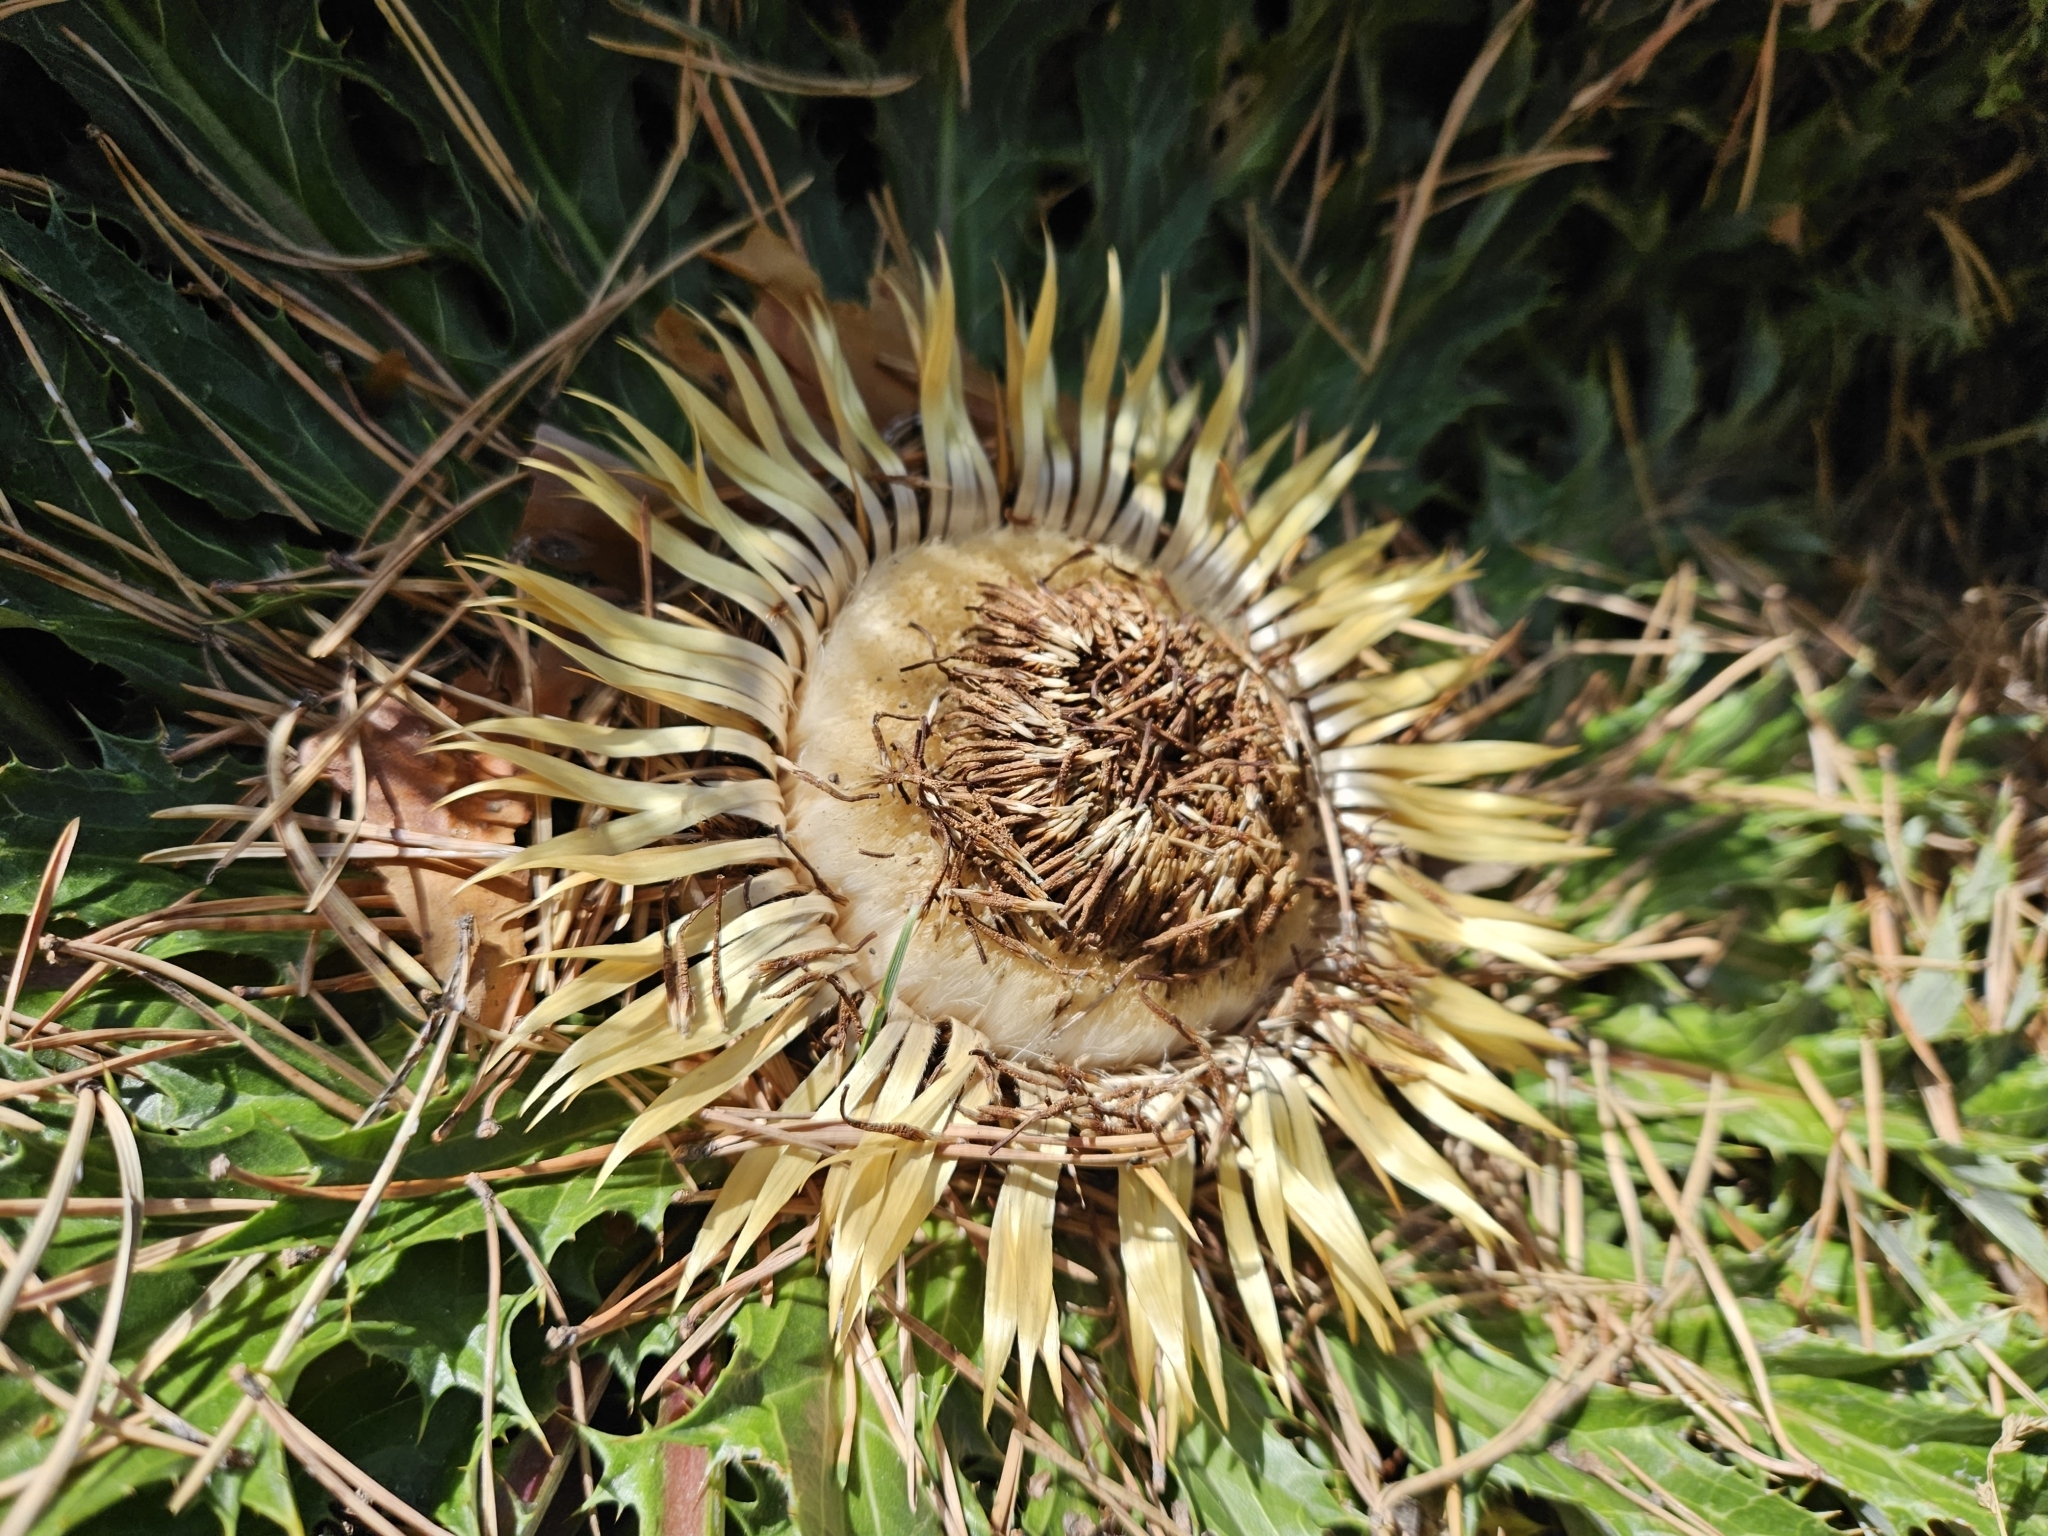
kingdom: Plantae
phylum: Tracheophyta
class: Magnoliopsida
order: Asterales
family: Asteraceae
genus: Carlina
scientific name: Carlina acanthifolia
